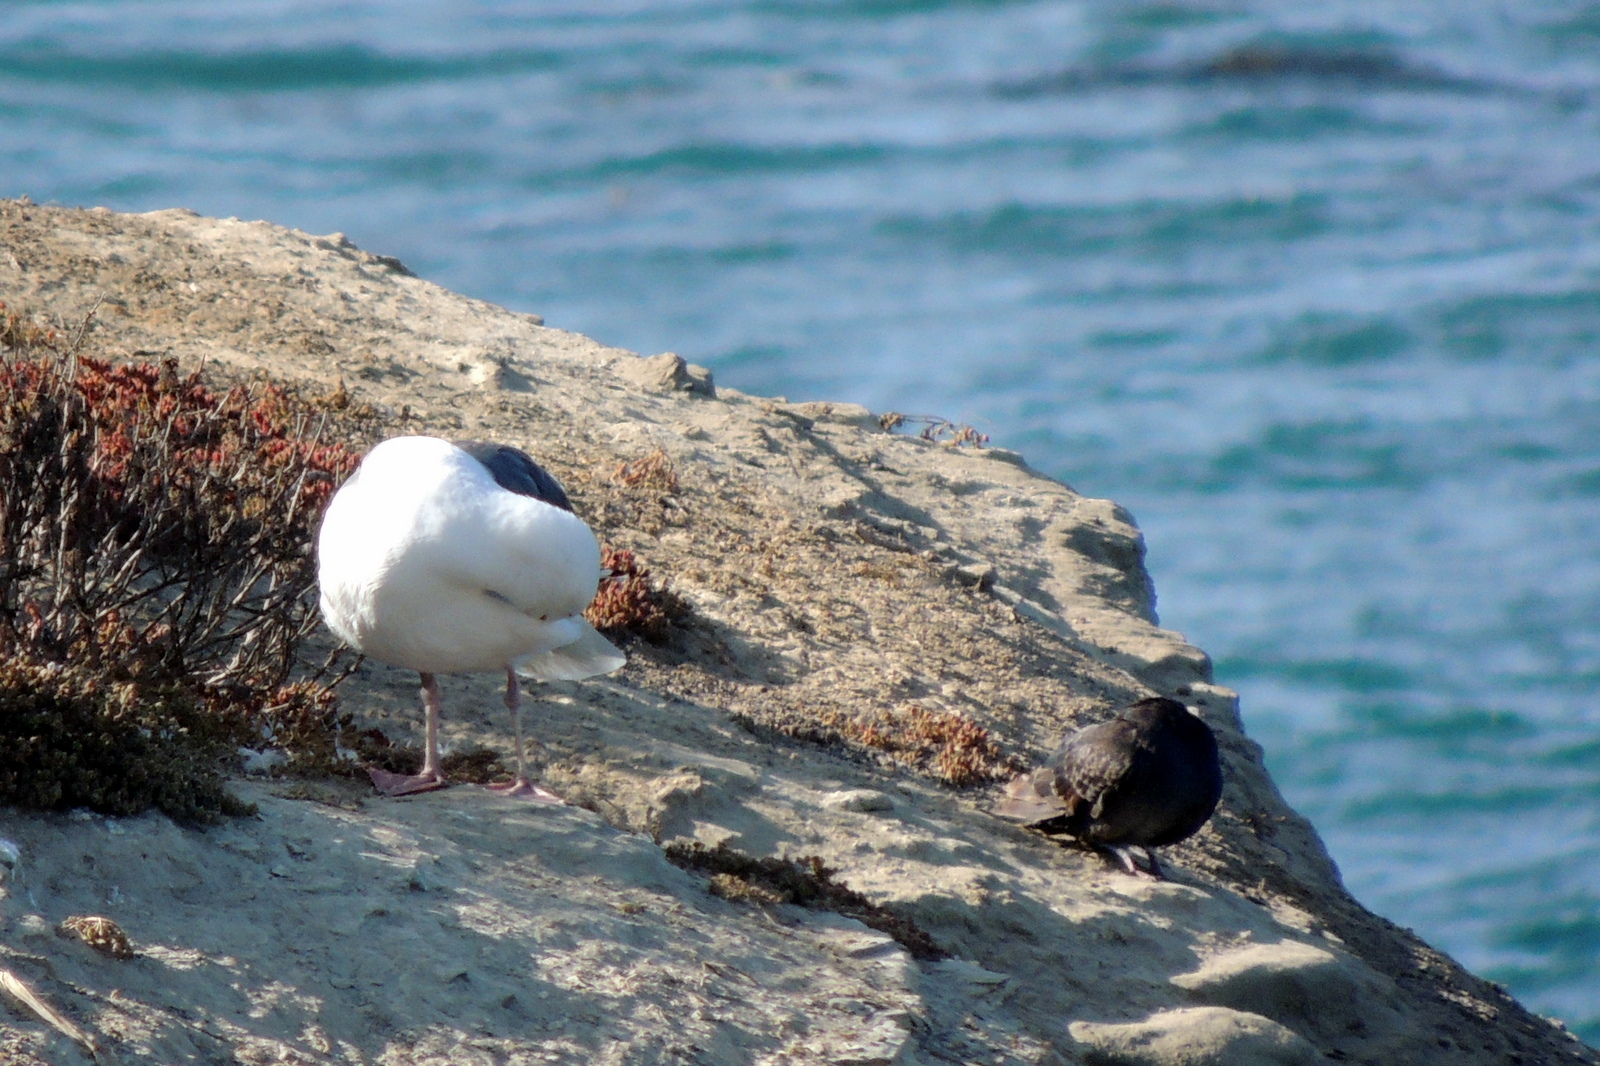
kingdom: Animalia
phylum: Chordata
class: Aves
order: Charadriiformes
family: Laridae
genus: Larus
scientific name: Larus occidentalis
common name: Western gull
